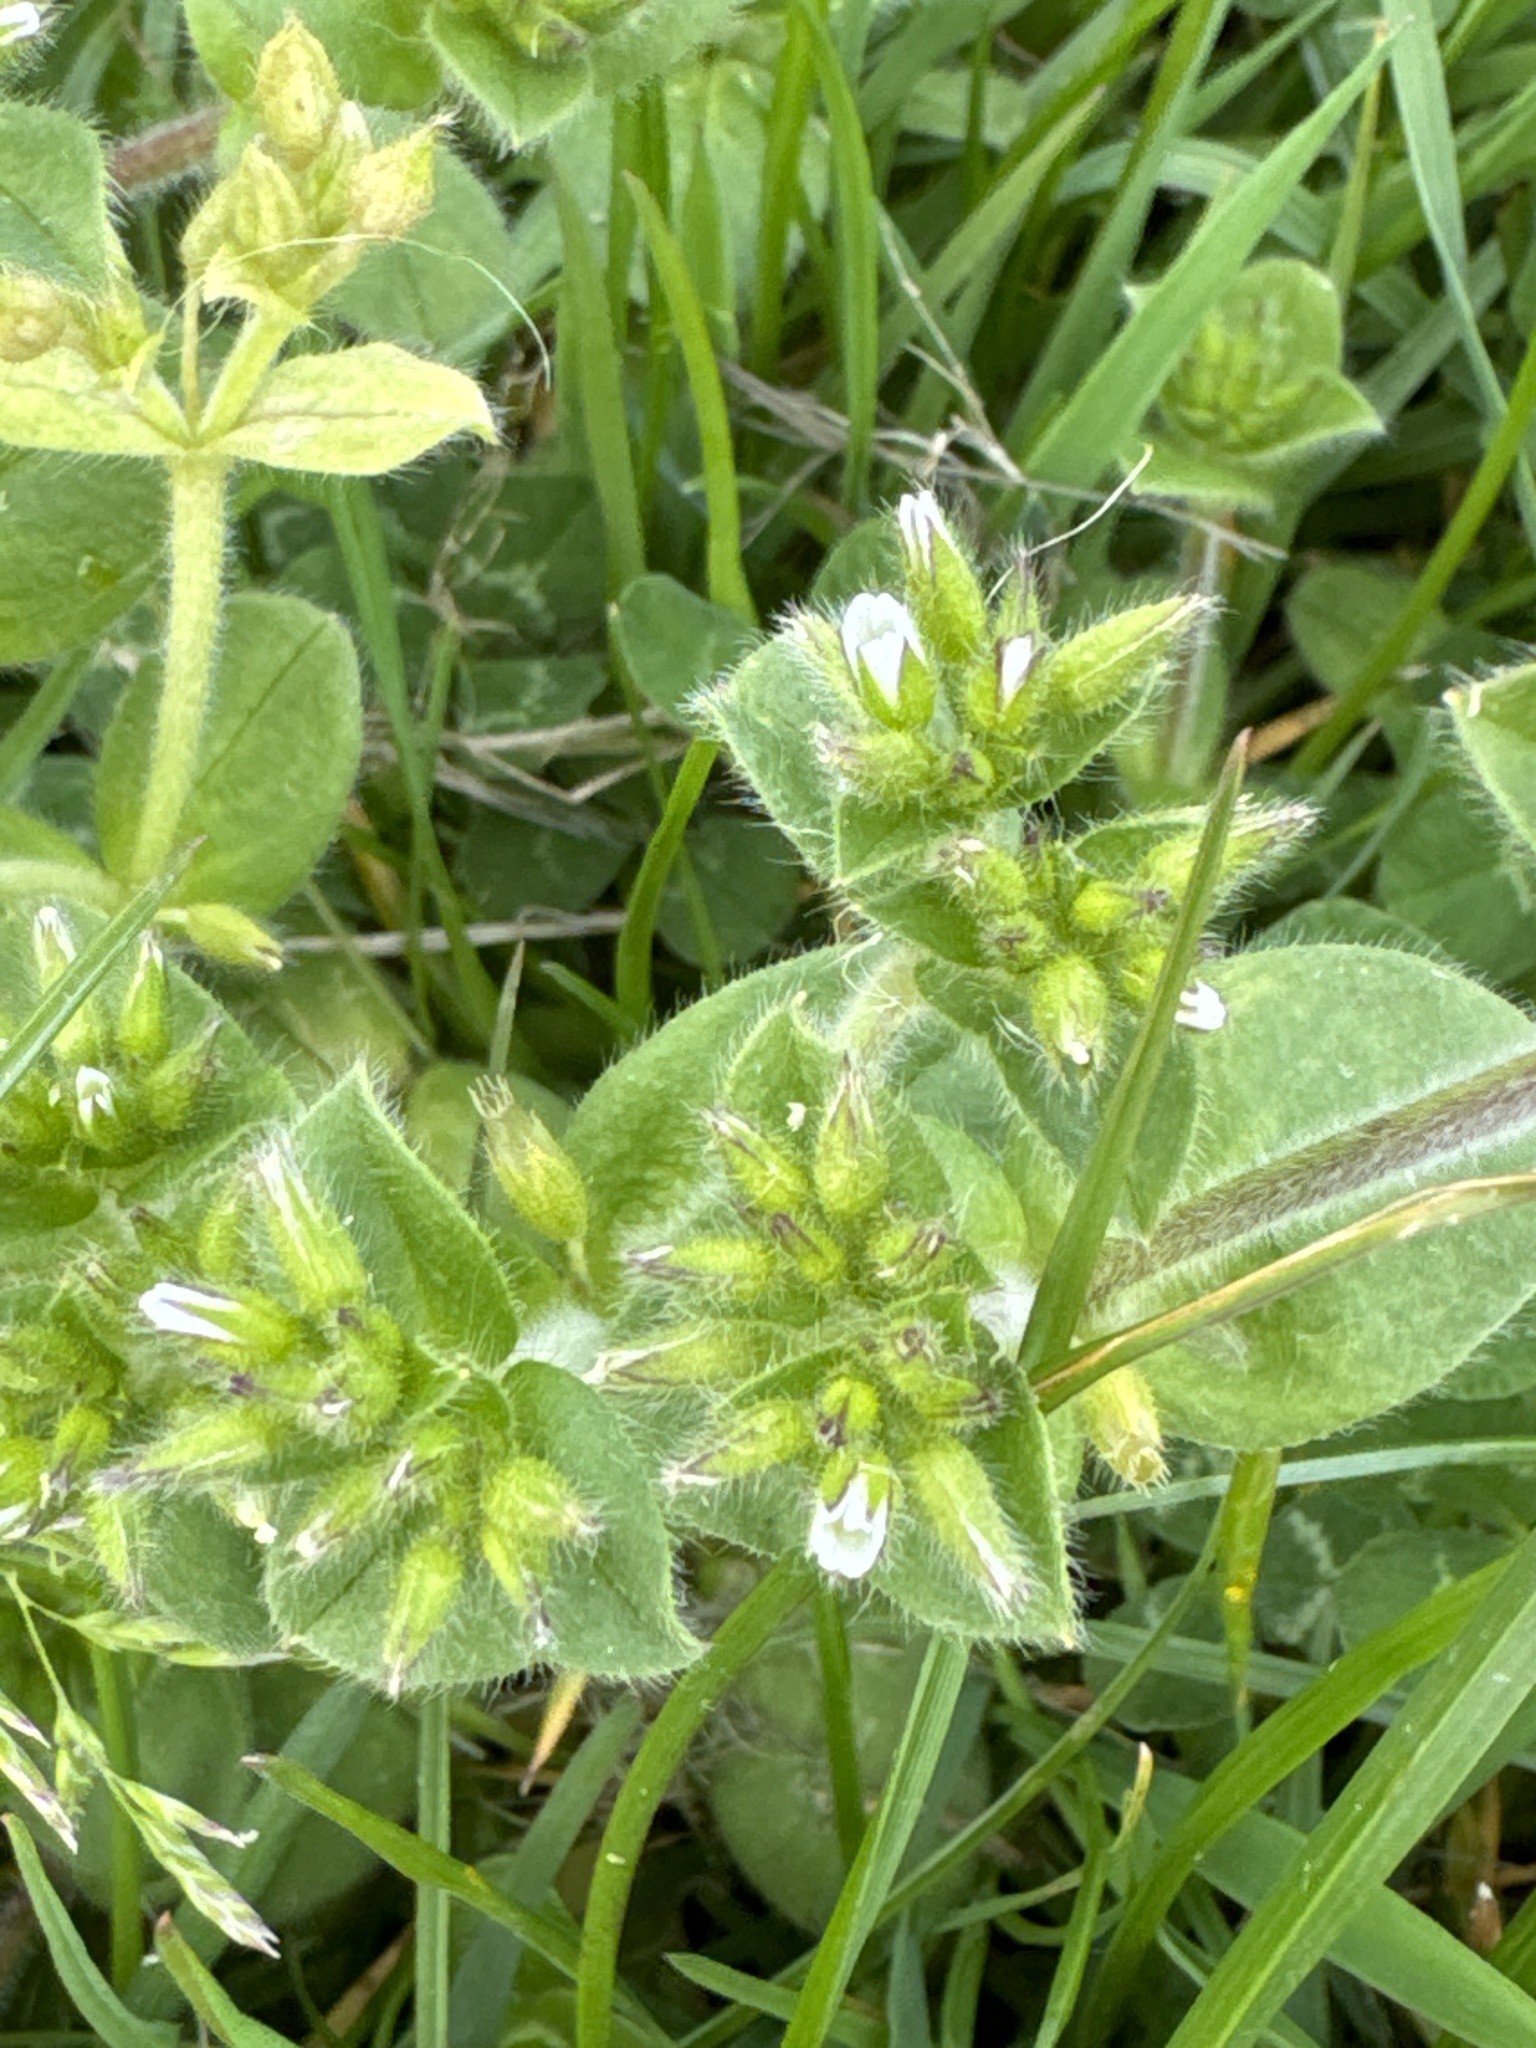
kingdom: Plantae
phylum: Tracheophyta
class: Magnoliopsida
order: Caryophyllales
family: Caryophyllaceae
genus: Cerastium
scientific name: Cerastium glomeratum
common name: Sticky chickweed
